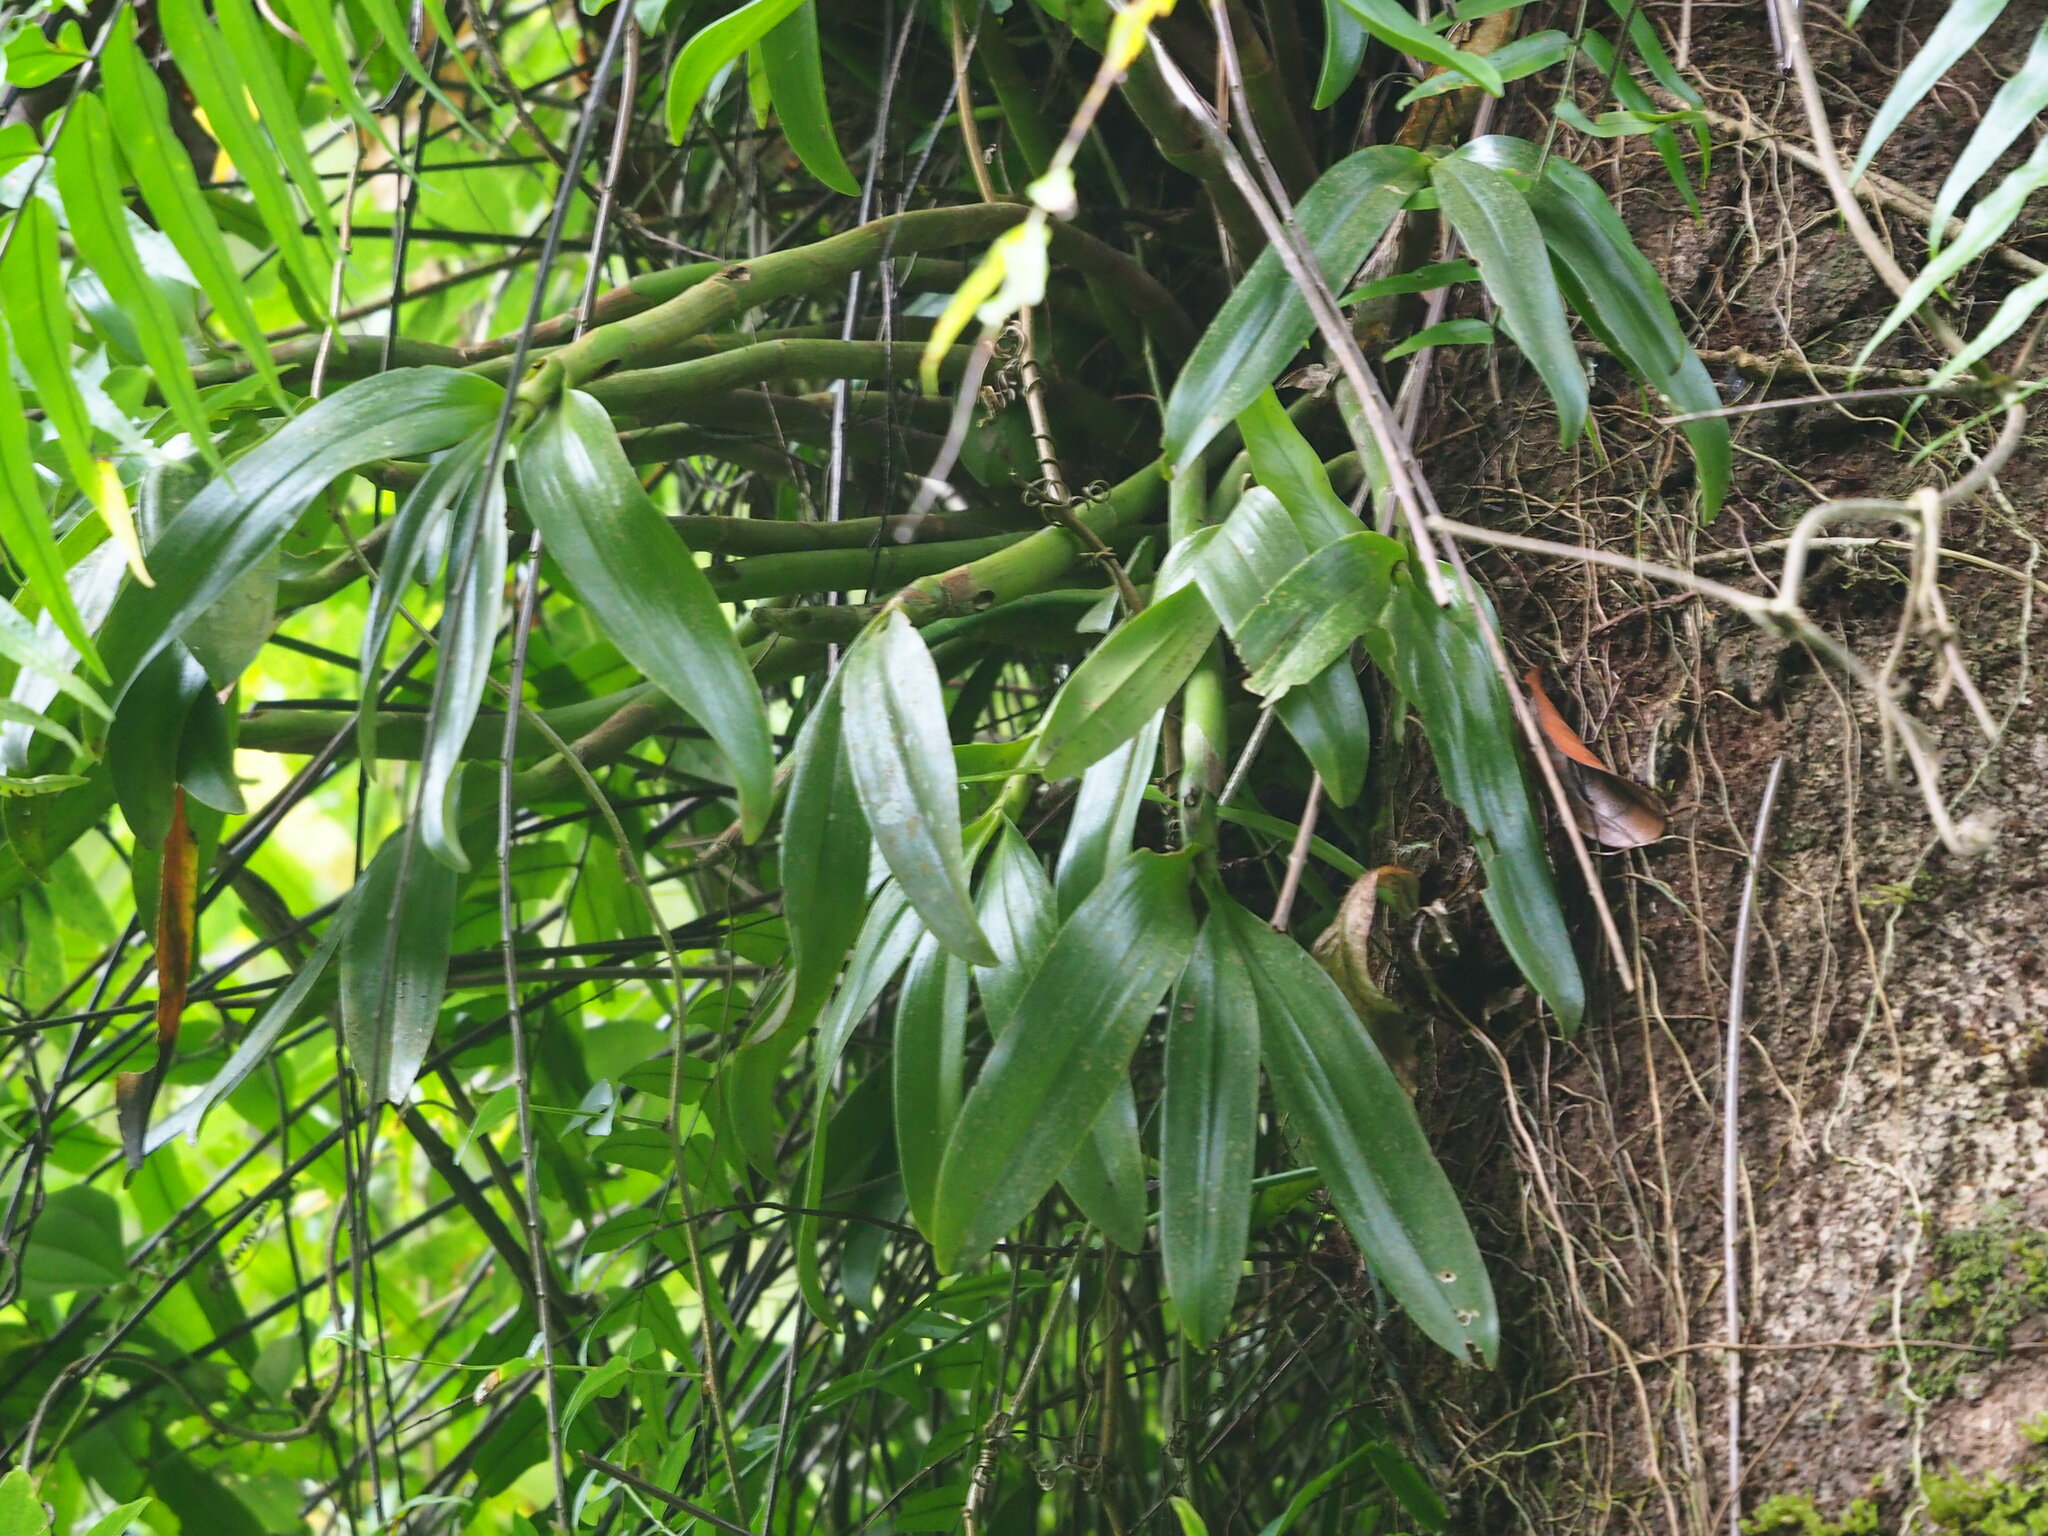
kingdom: Plantae
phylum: Tracheophyta
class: Liliopsida
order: Asparagales
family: Orchidaceae
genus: Pinalia
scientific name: Pinalia ovata
